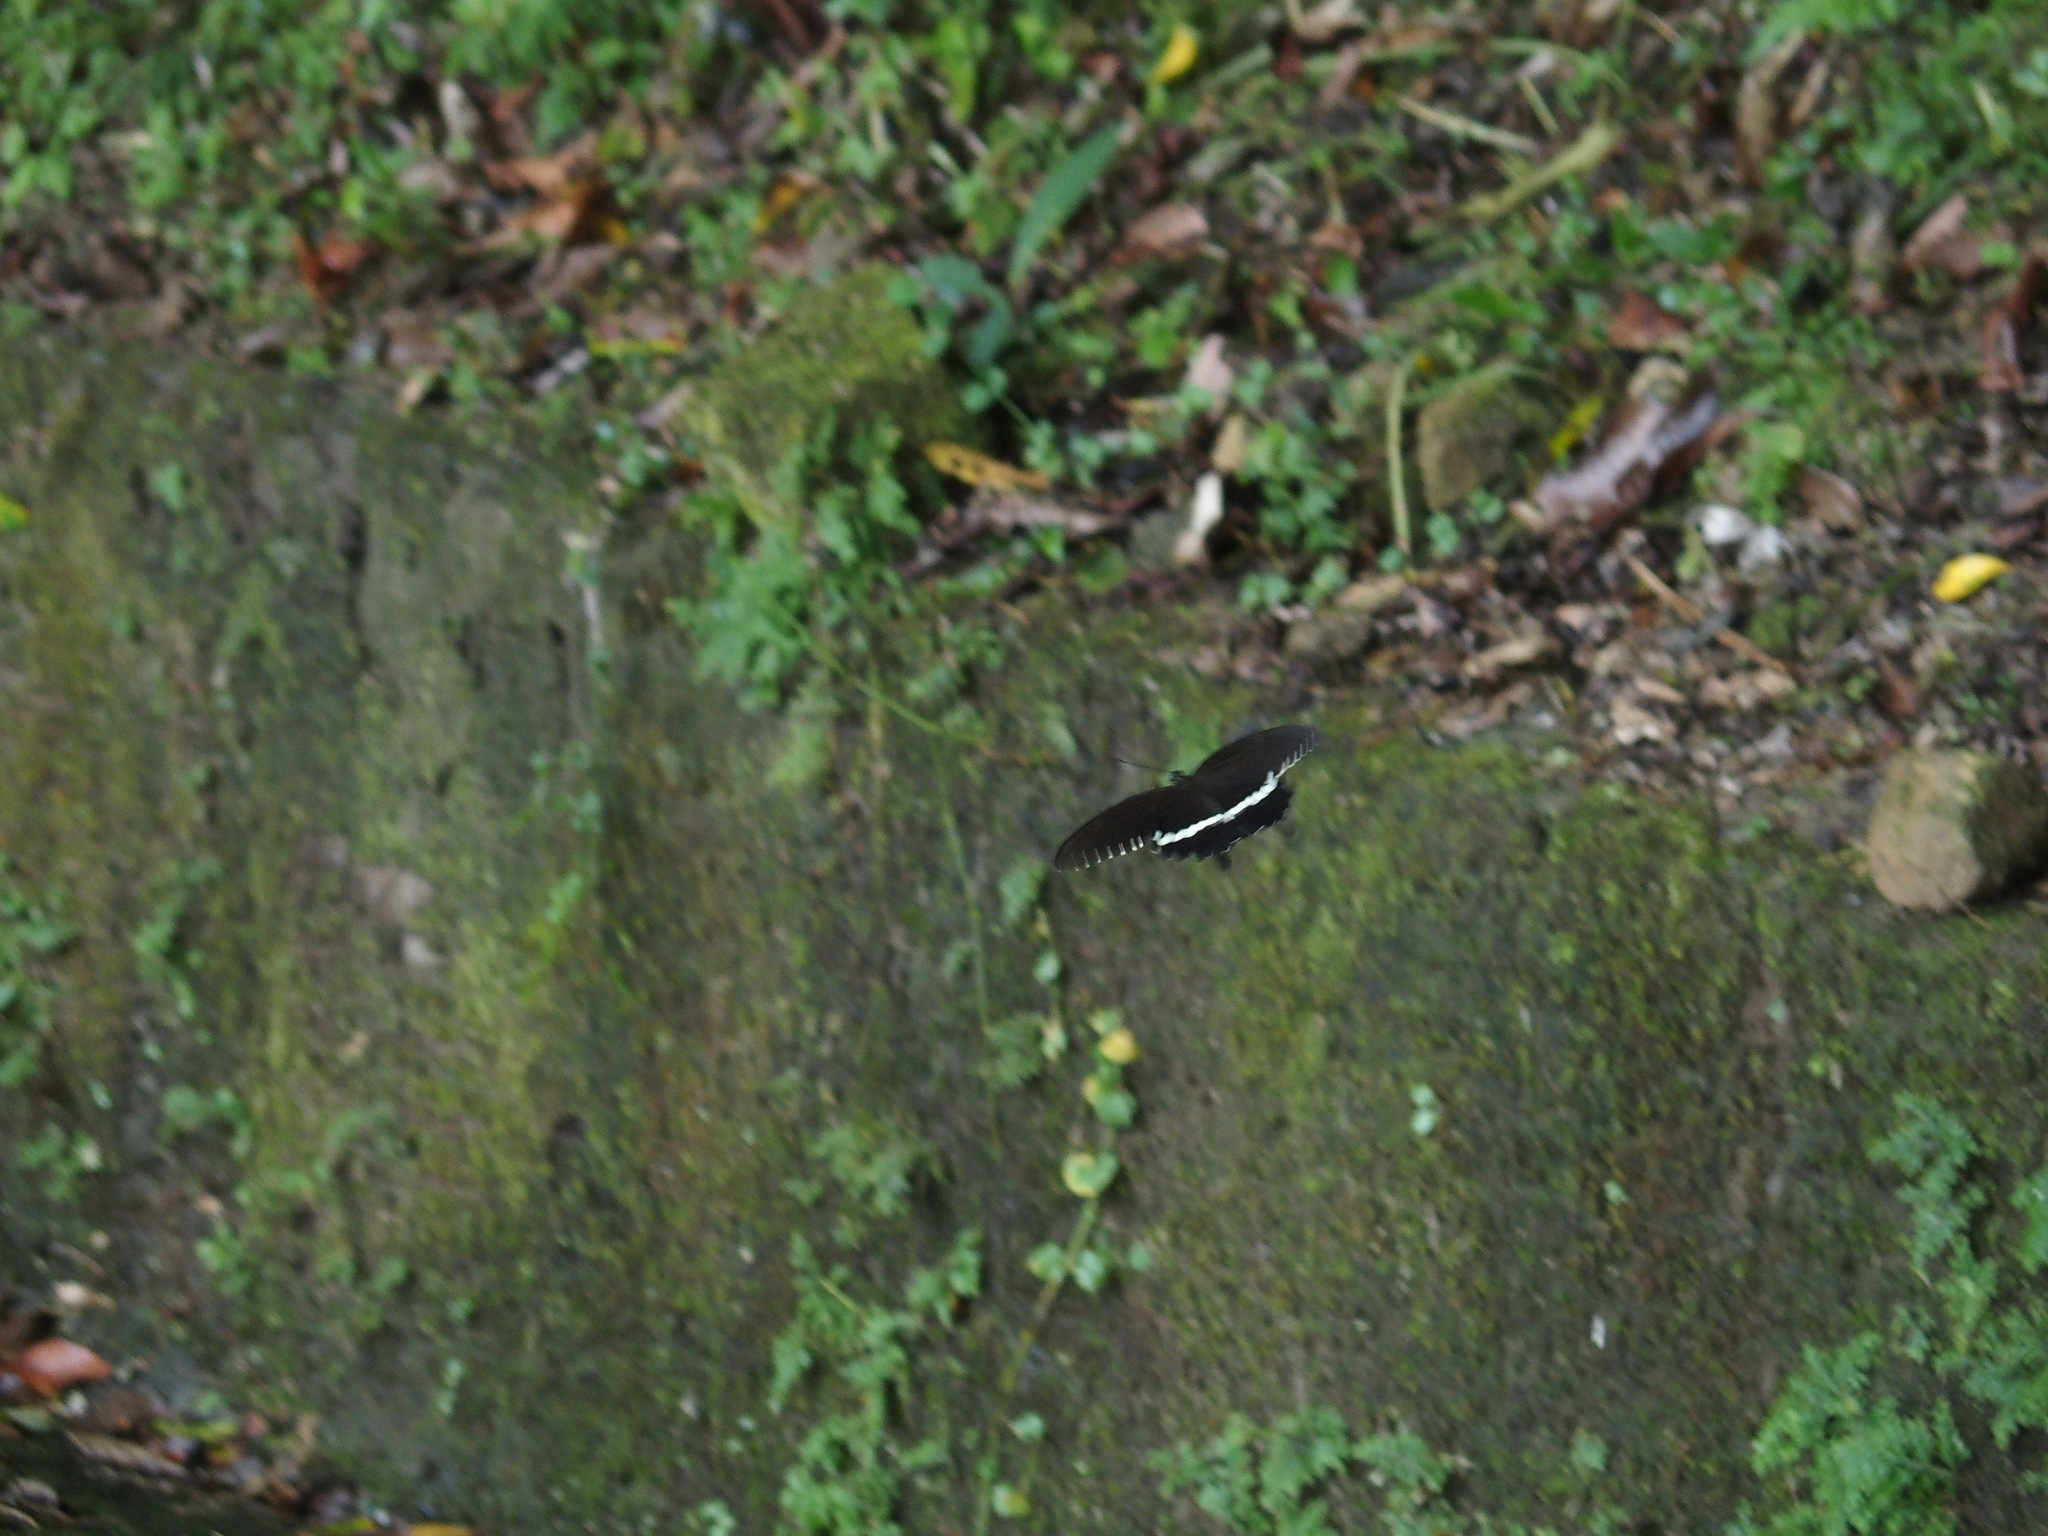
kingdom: Animalia
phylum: Arthropoda
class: Insecta
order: Lepidoptera
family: Papilionidae
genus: Papilio
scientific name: Papilio polytes
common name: Common mormon
